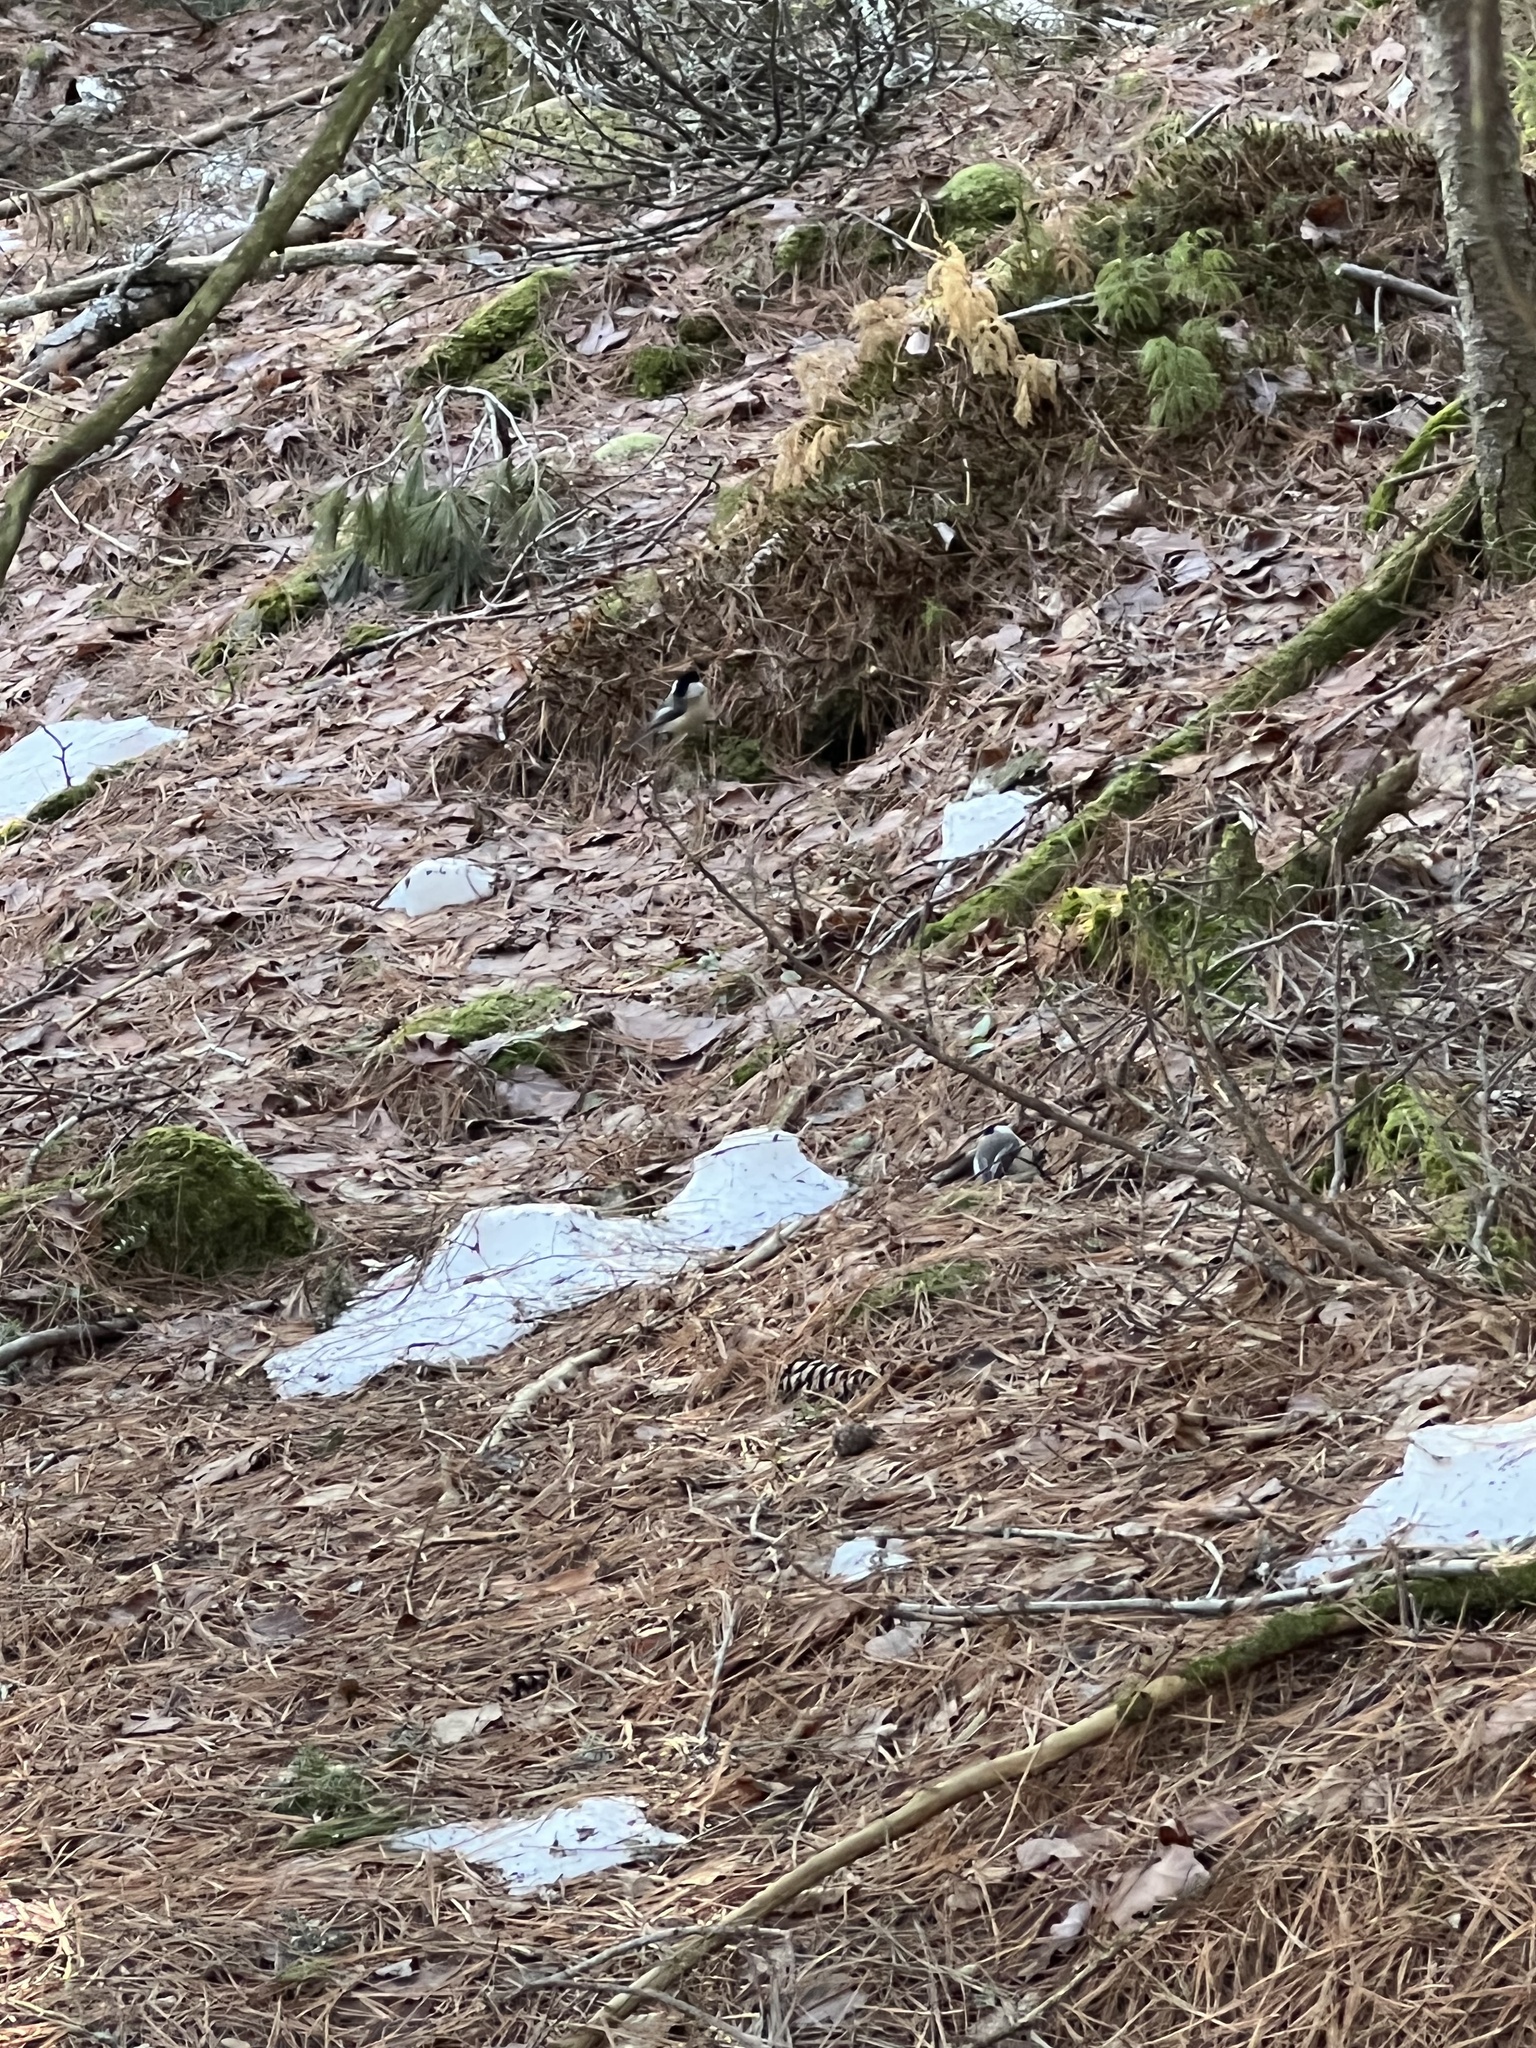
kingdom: Animalia
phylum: Chordata
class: Aves
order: Passeriformes
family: Paridae
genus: Poecile
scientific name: Poecile atricapillus
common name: Black-capped chickadee
